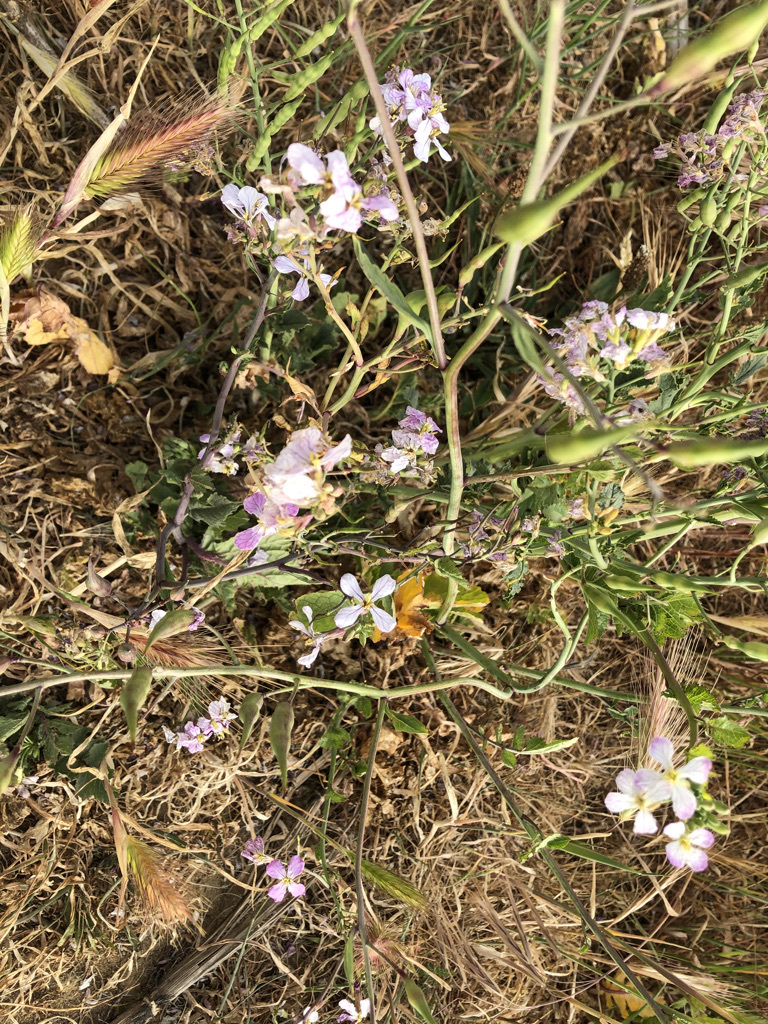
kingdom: Plantae
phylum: Tracheophyta
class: Magnoliopsida
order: Brassicales
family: Brassicaceae
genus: Raphanus
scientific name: Raphanus sativus
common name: Cultivated radish
